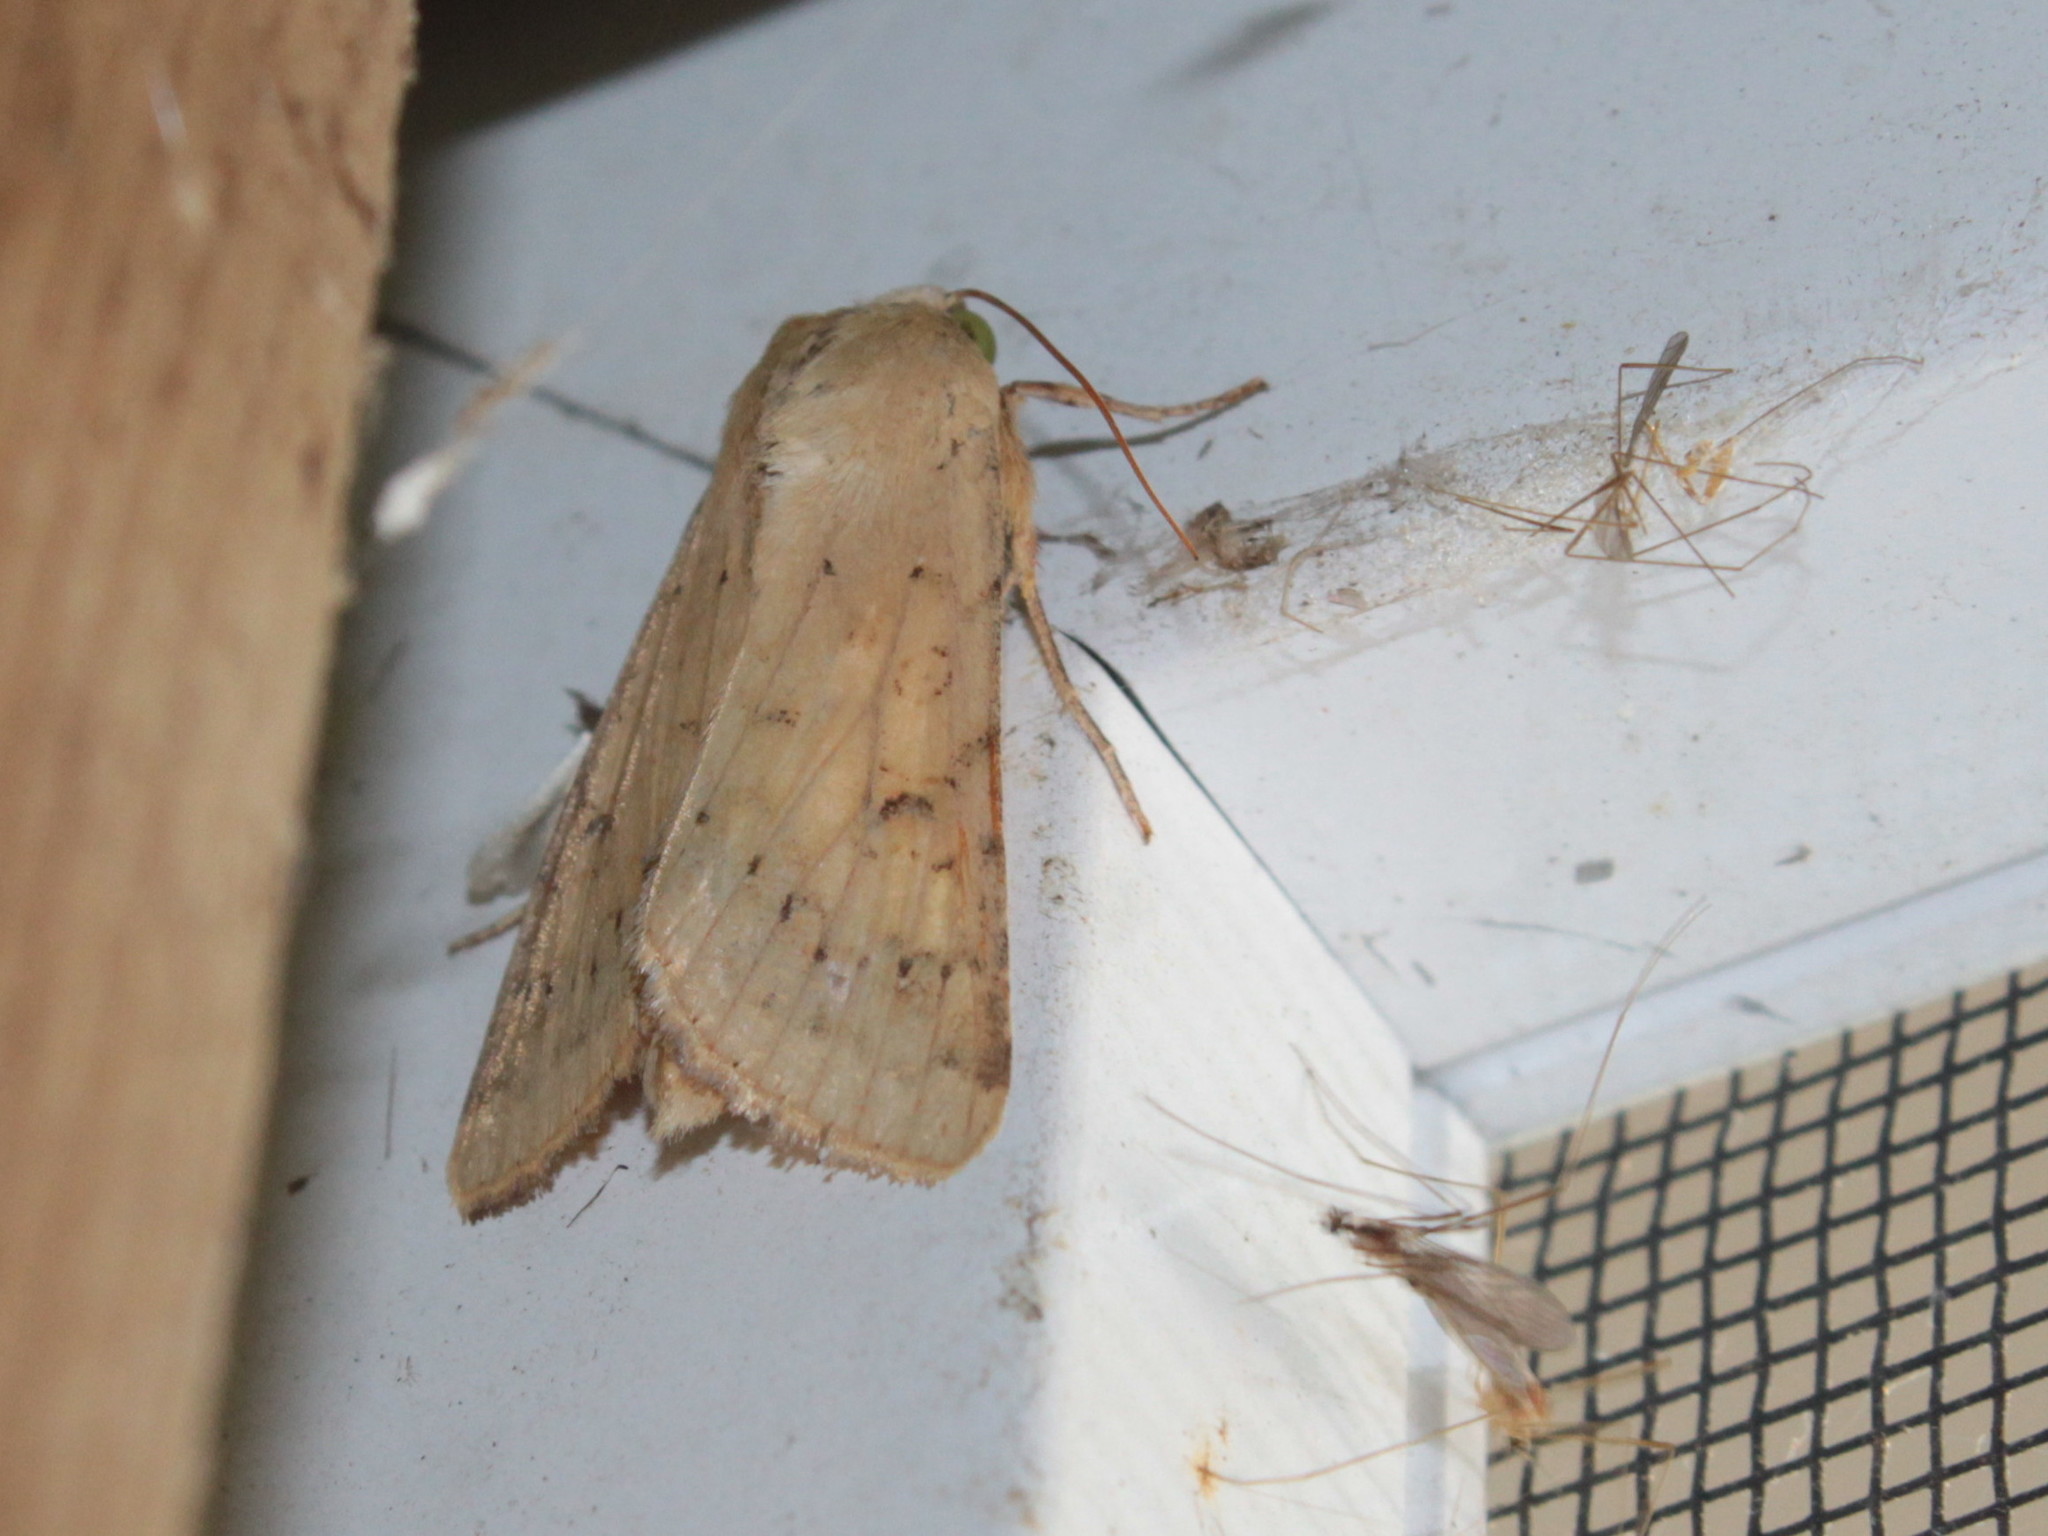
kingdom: Animalia
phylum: Arthropoda
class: Insecta
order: Lepidoptera
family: Noctuidae
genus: Helicoverpa
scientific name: Helicoverpa zea
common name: Bollworm
